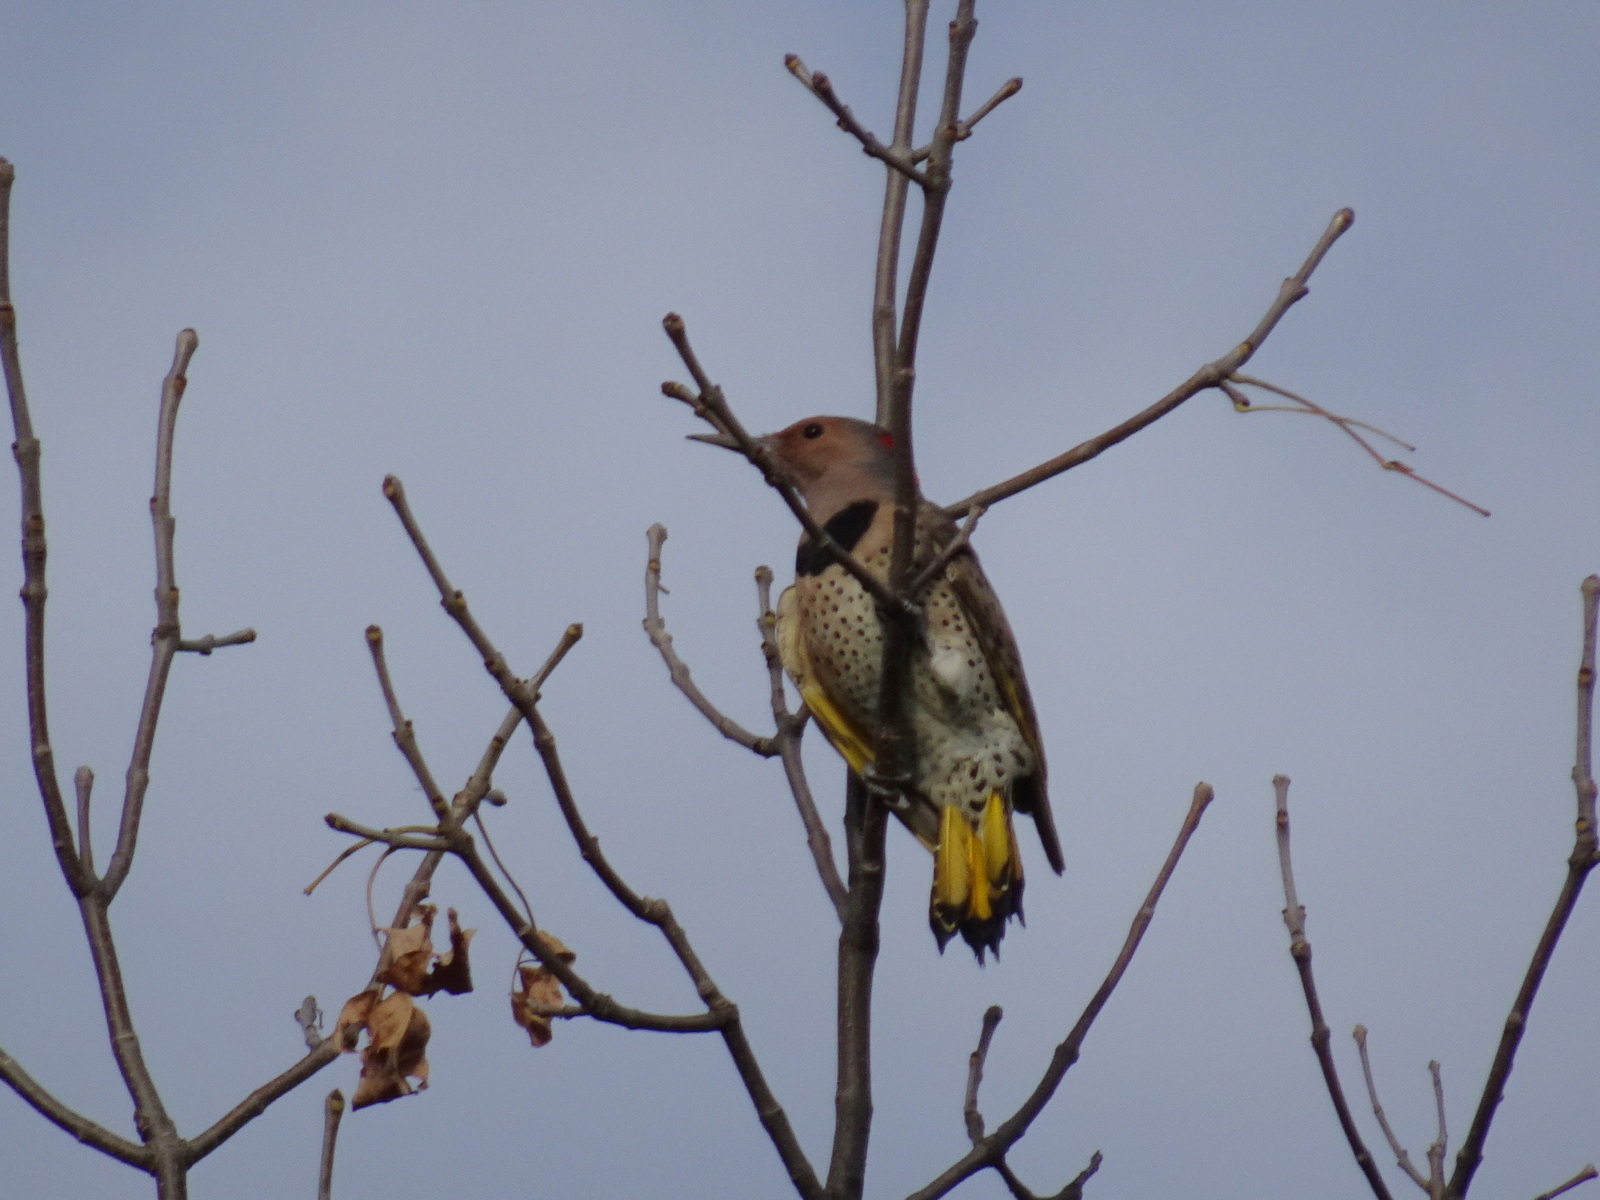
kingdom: Animalia
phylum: Chordata
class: Aves
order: Piciformes
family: Picidae
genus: Colaptes
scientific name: Colaptes auratus
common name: Northern flicker
